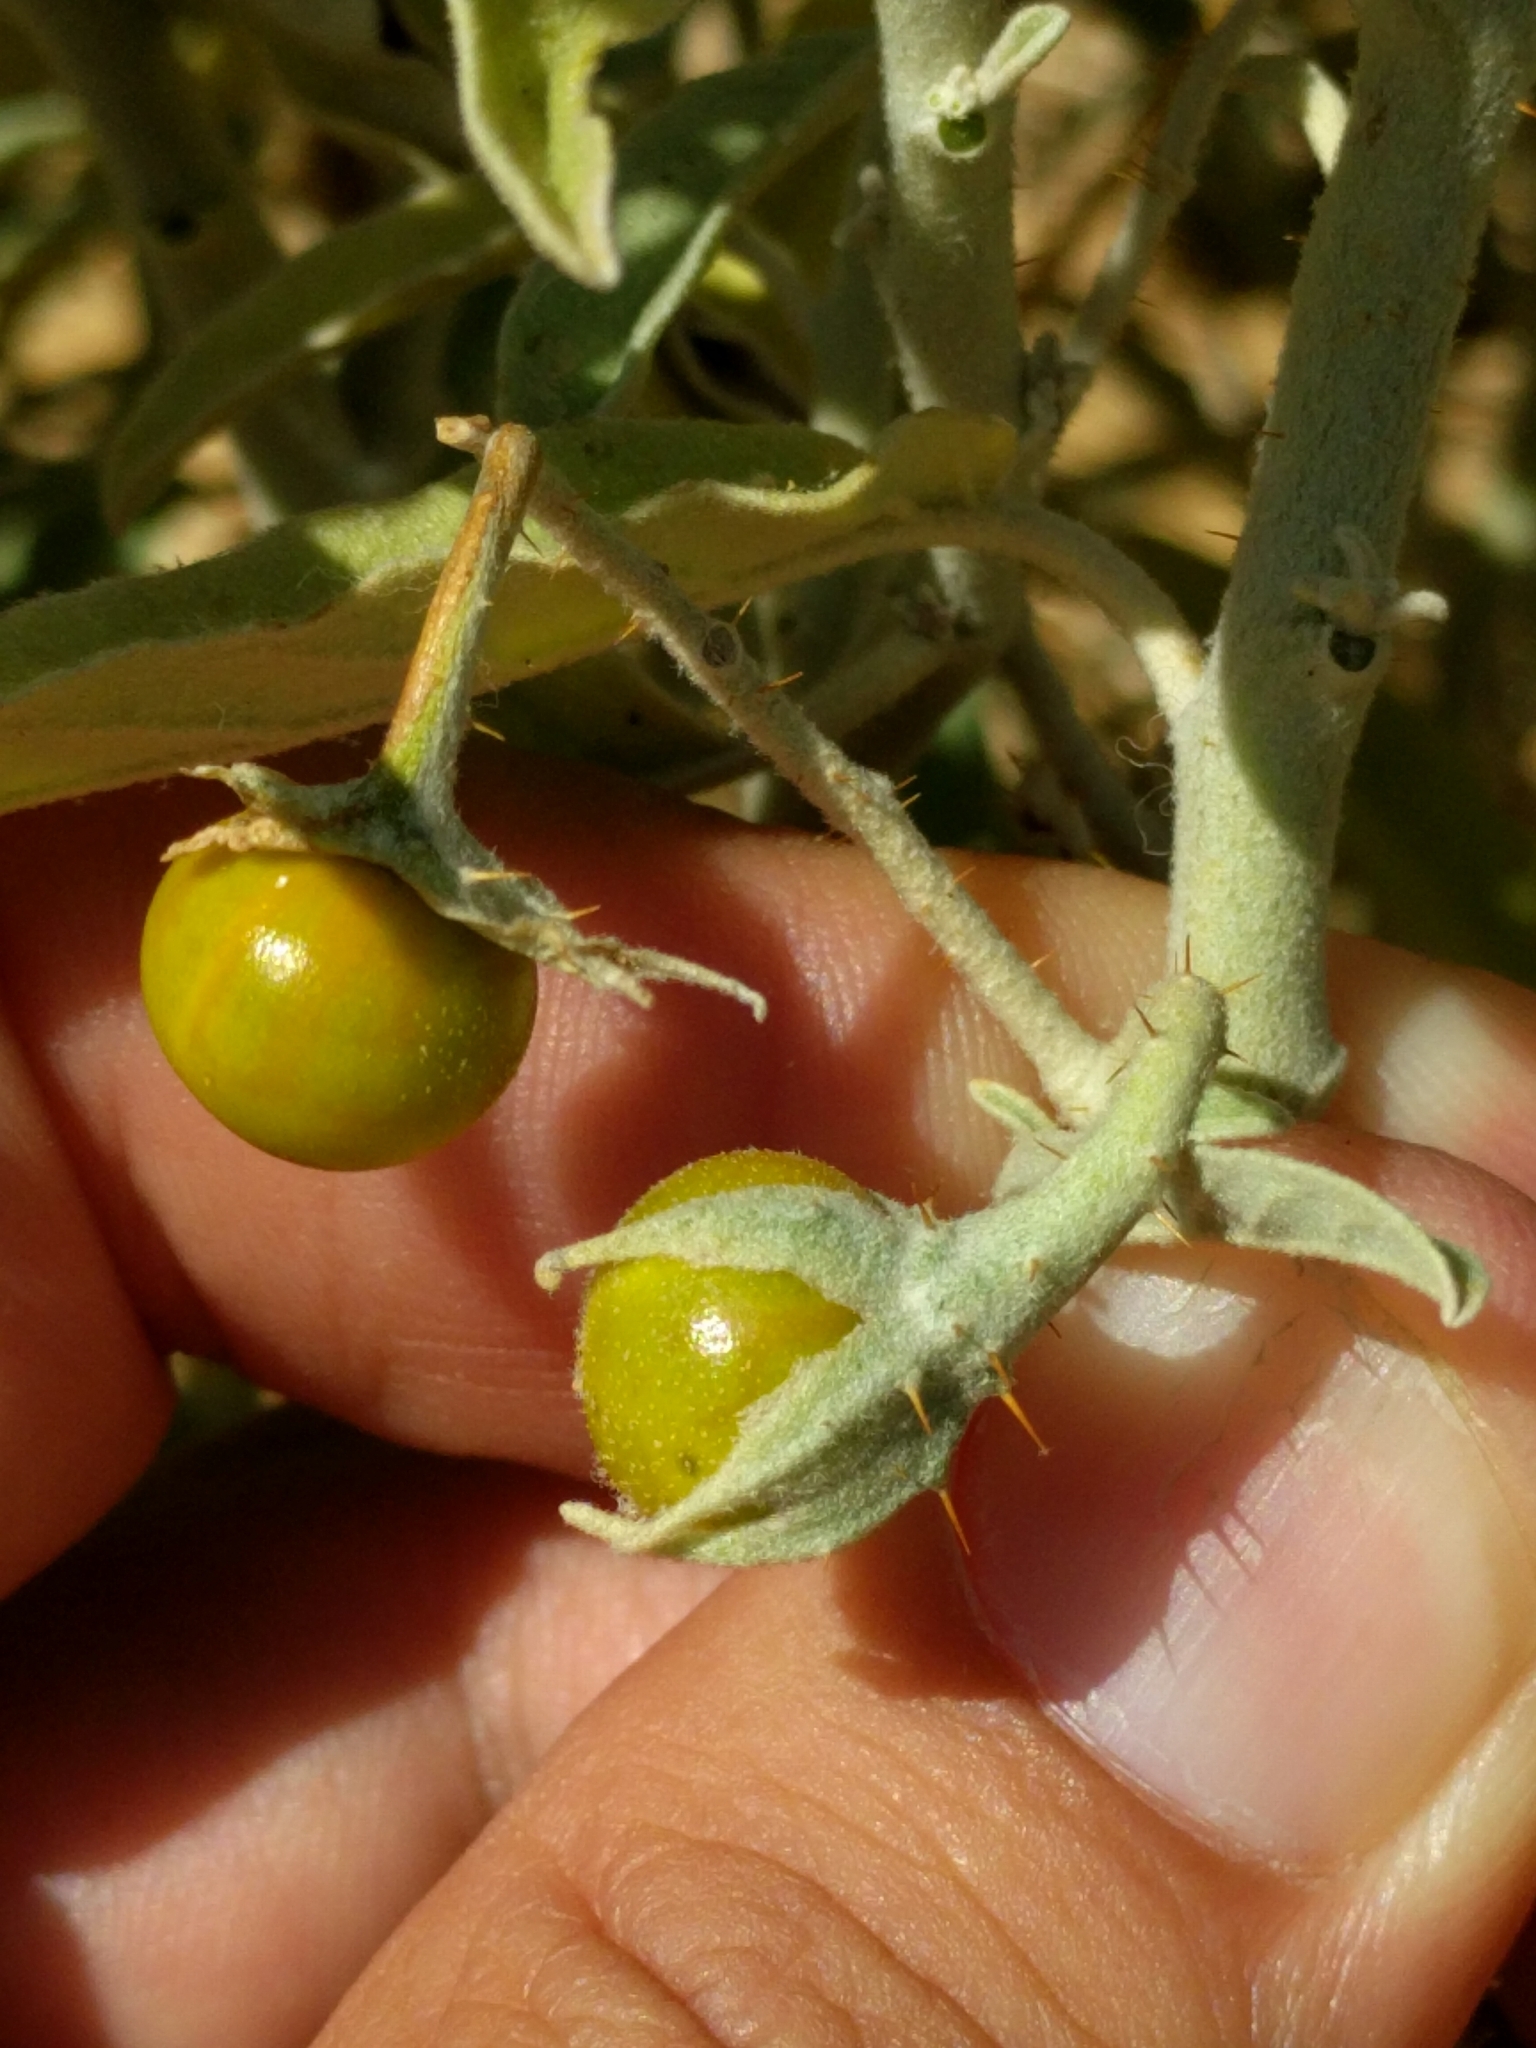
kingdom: Plantae
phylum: Tracheophyta
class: Magnoliopsida
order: Solanales
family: Solanaceae
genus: Solanum
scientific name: Solanum elaeagnifolium
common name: Silverleaf nightshade
